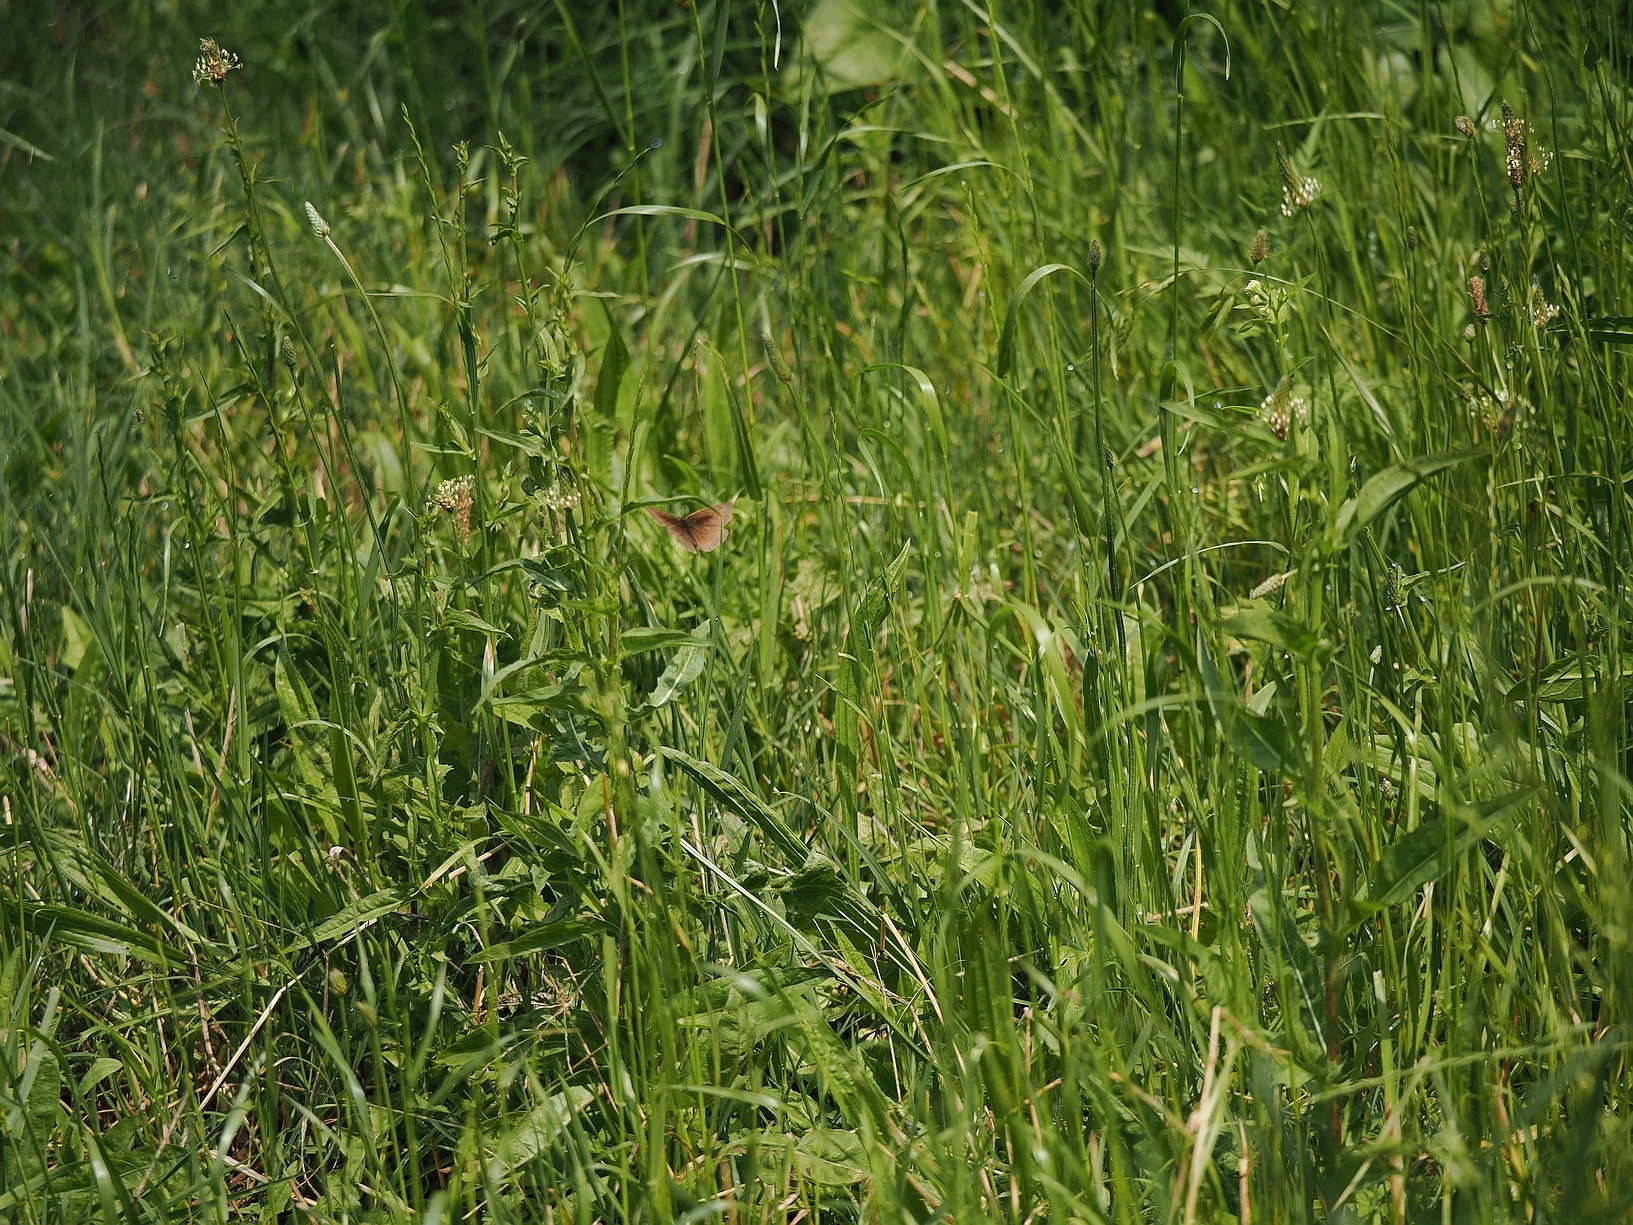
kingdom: Animalia
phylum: Arthropoda
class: Insecta
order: Lepidoptera
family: Nymphalidae
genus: Maniola
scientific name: Maniola jurtina
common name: Meadow brown
